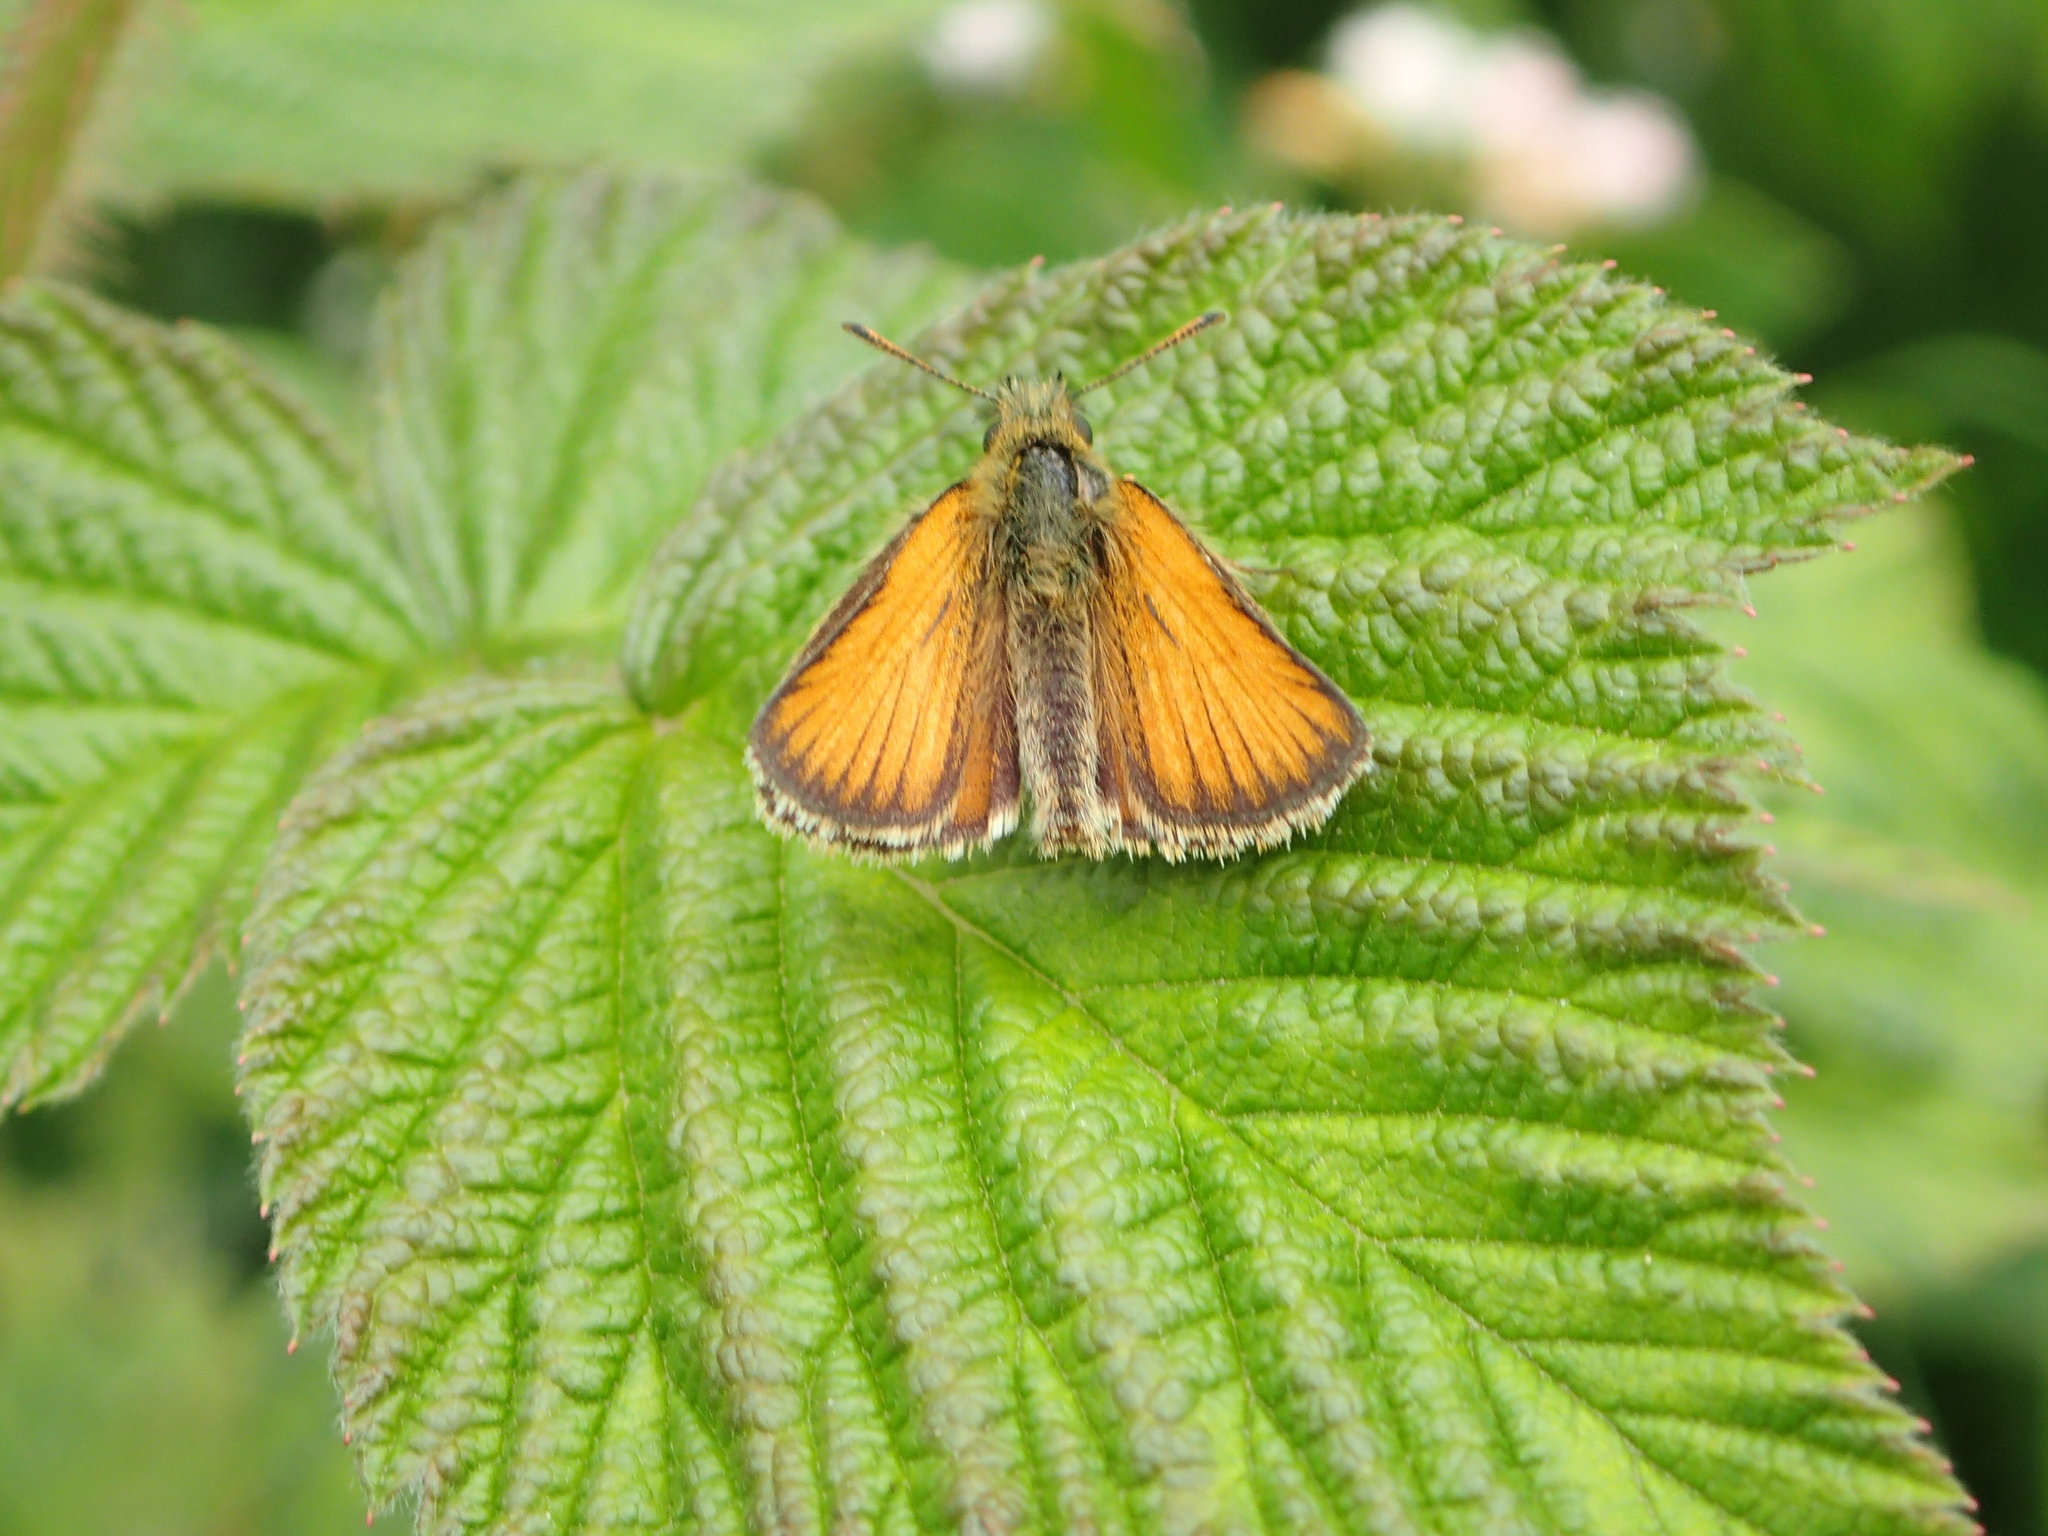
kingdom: Animalia
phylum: Arthropoda
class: Insecta
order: Lepidoptera
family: Hesperiidae
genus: Thymelicus
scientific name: Thymelicus lineola
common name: Essex skipper
